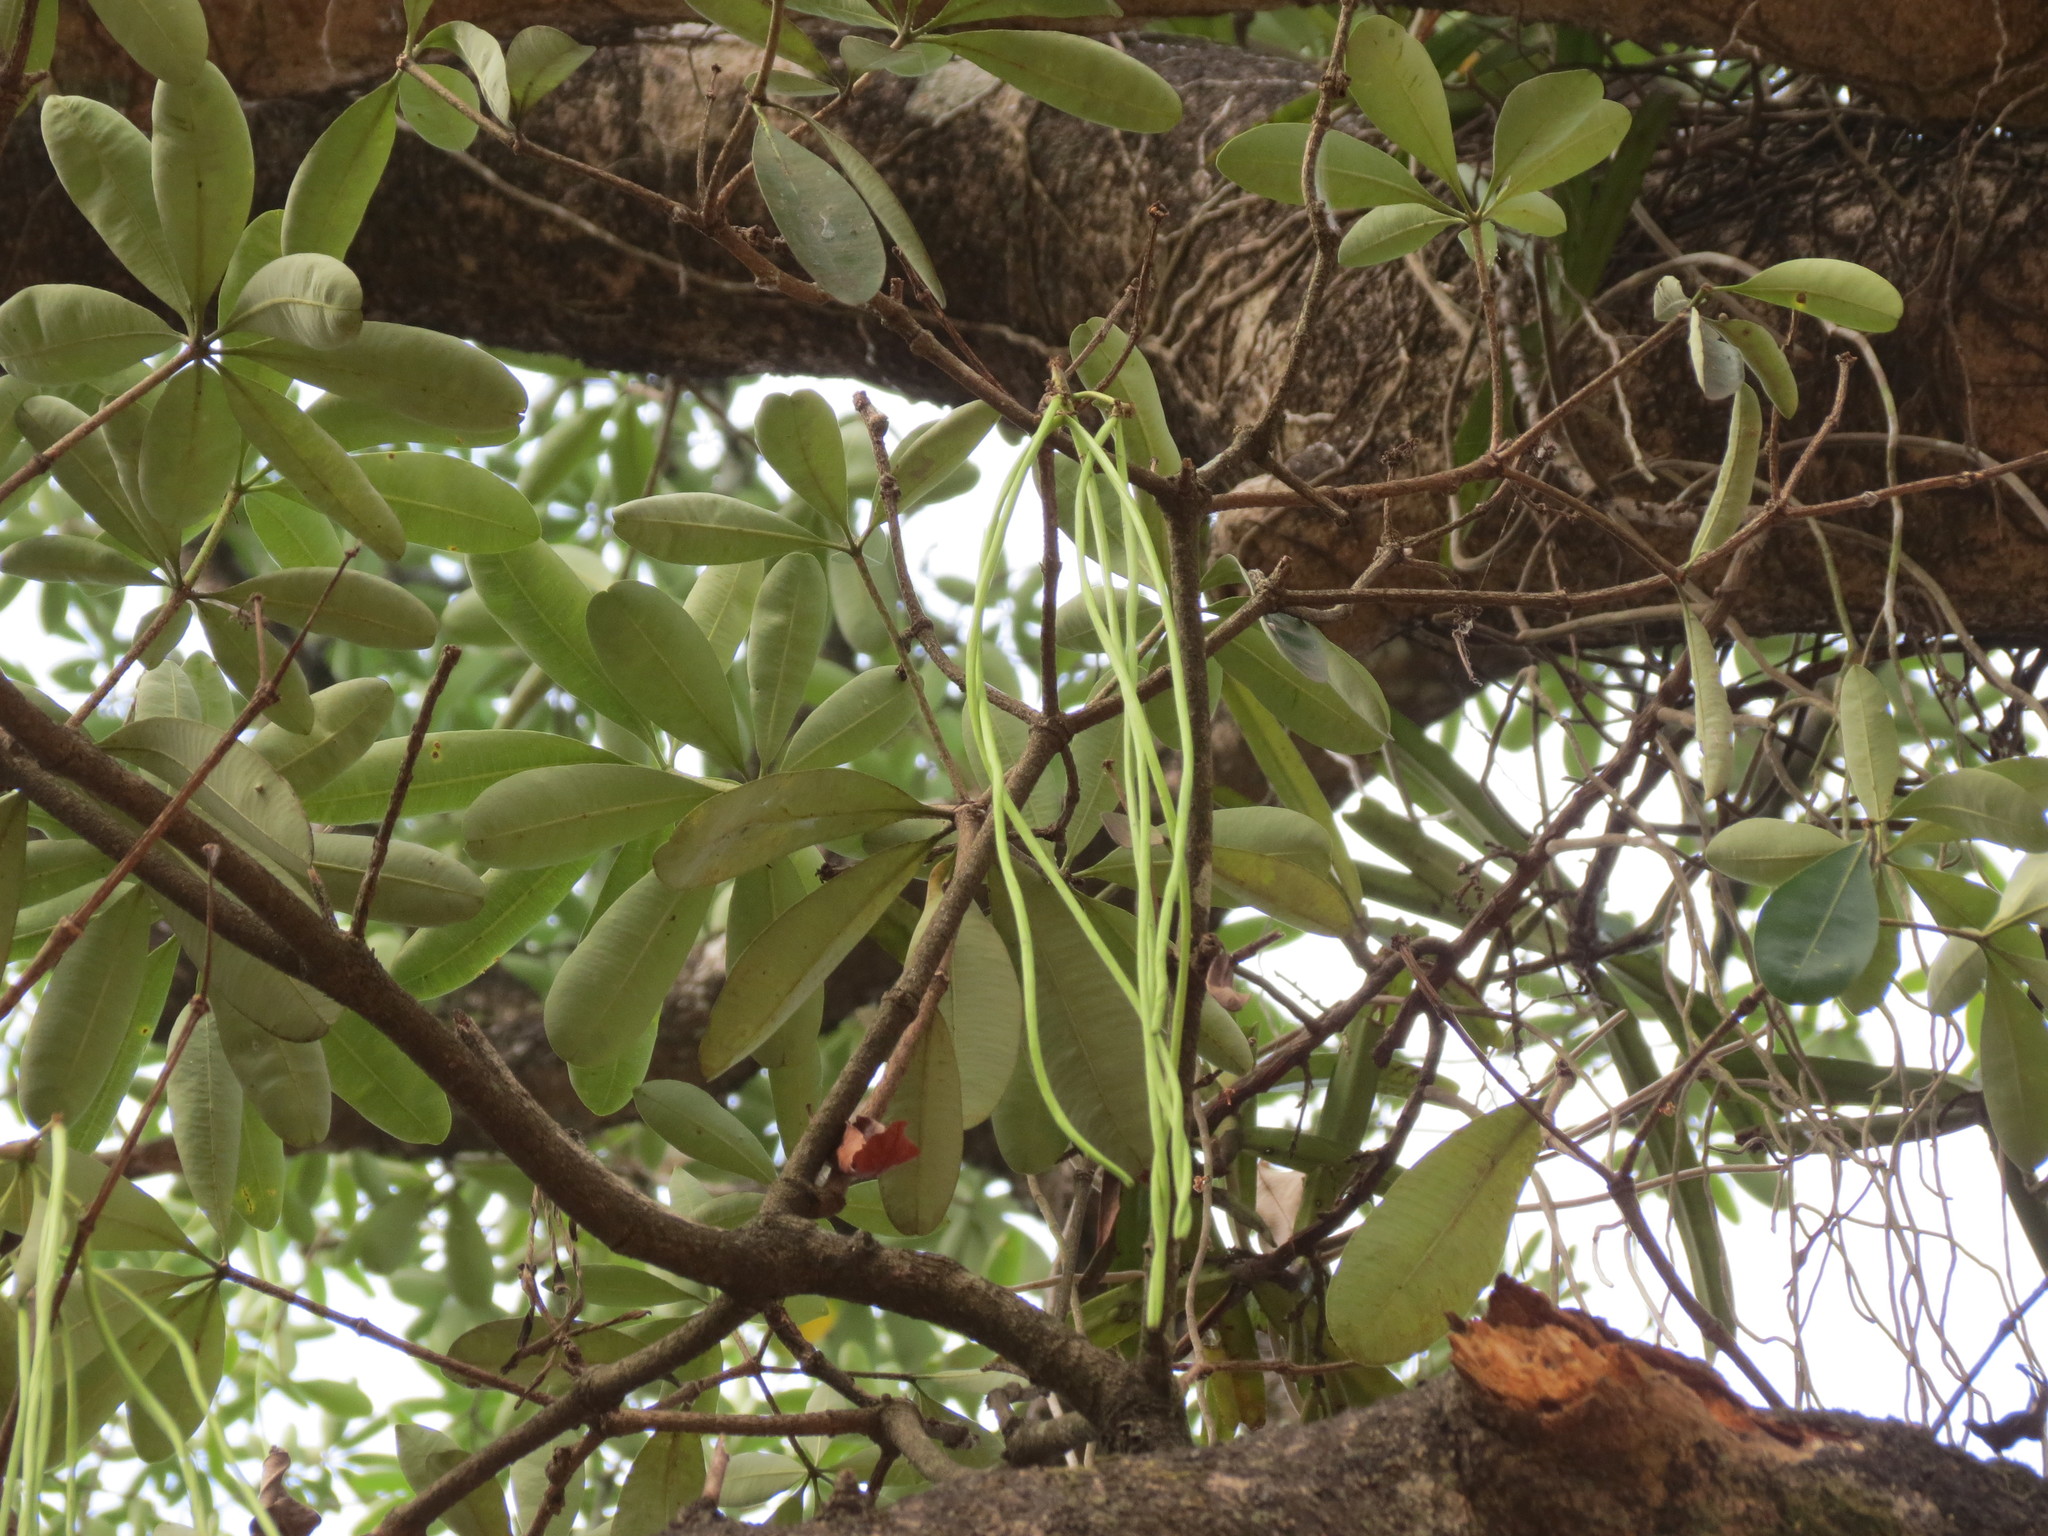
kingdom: Plantae
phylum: Tracheophyta
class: Magnoliopsida
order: Gentianales
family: Apocynaceae
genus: Alstonia
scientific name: Alstonia scholaris
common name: White cheesewood
